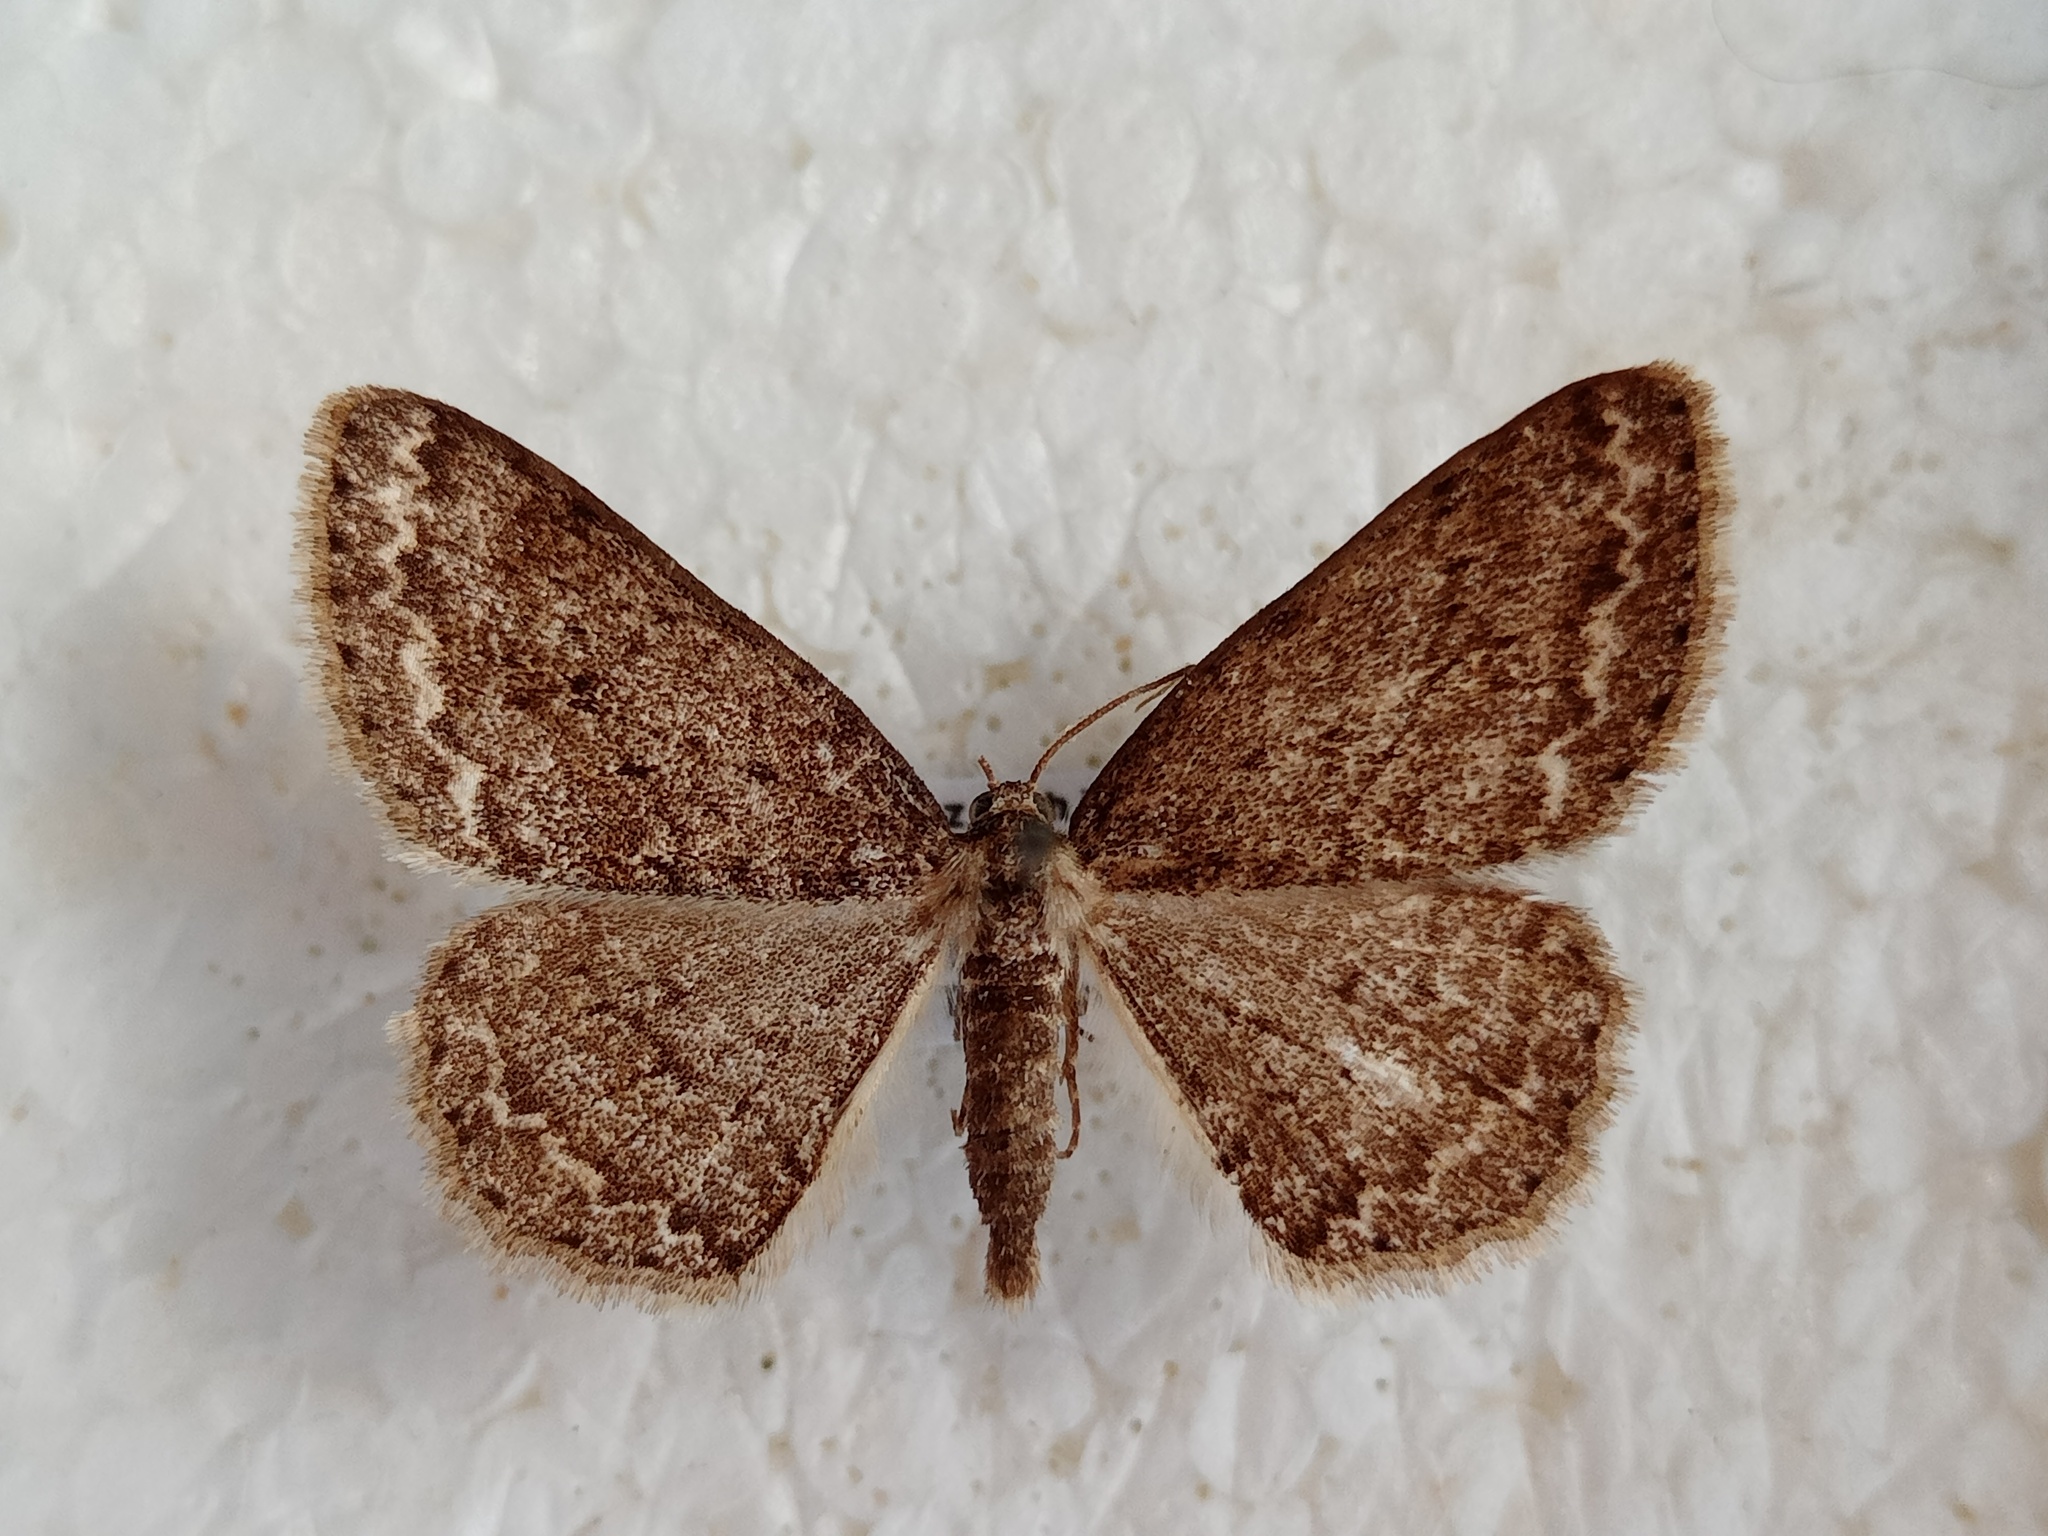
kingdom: Animalia
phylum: Arthropoda
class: Insecta
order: Lepidoptera
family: Geometridae
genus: Ectropis
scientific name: Ectropis crepuscularia
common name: Engrailed
